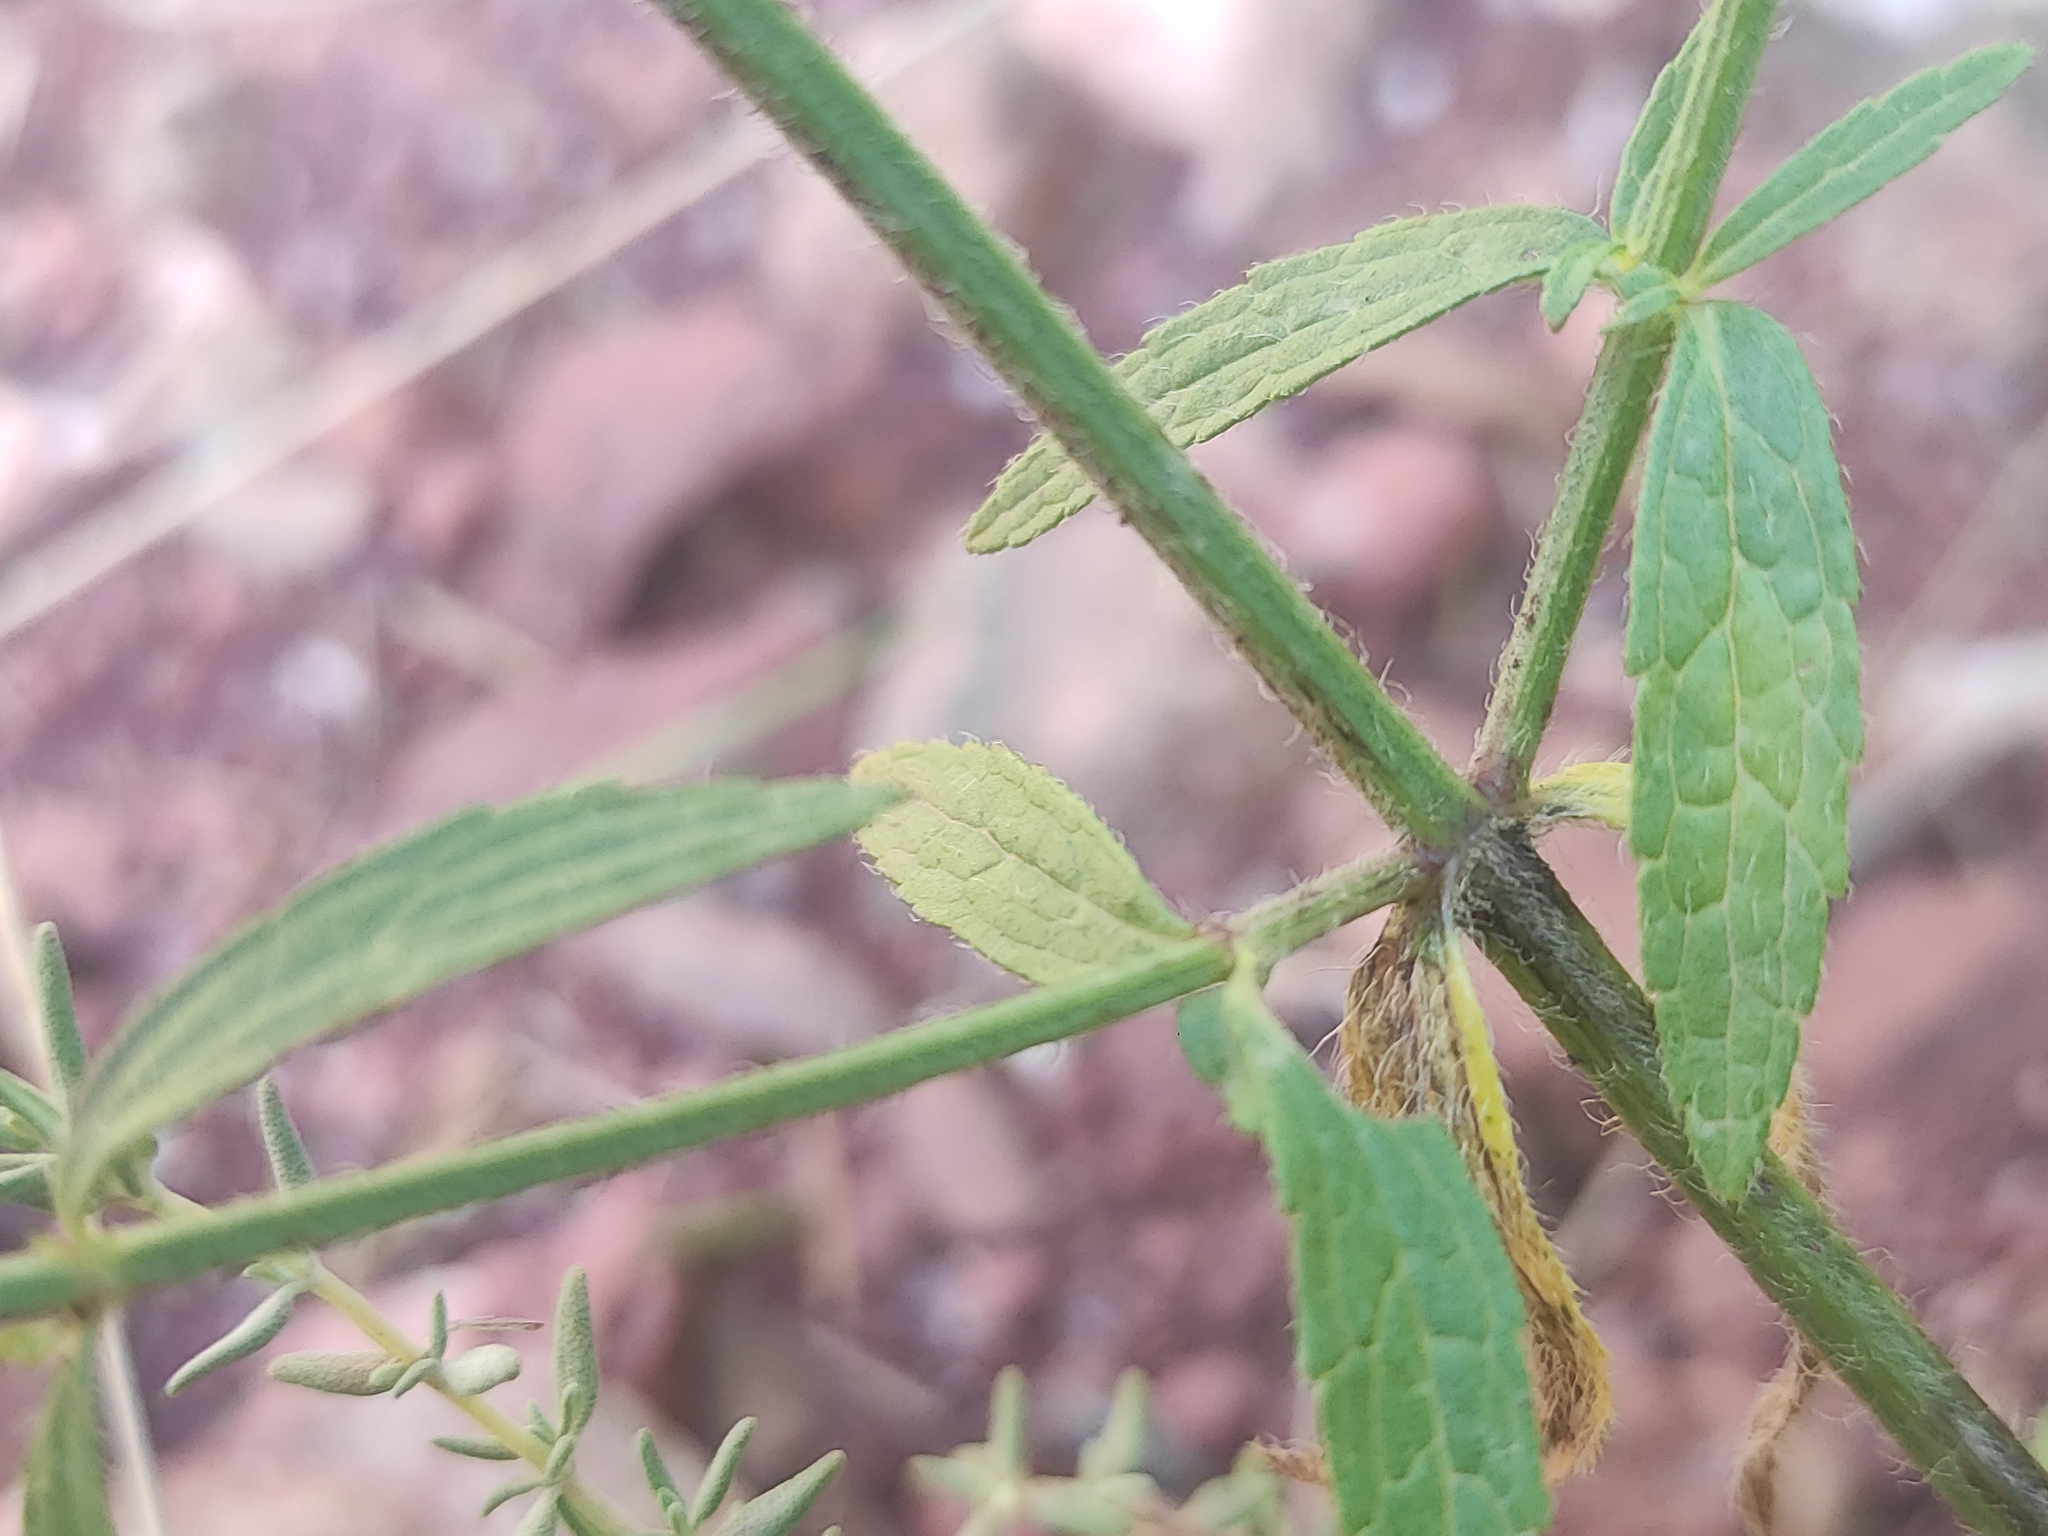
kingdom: Plantae
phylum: Tracheophyta
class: Magnoliopsida
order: Lamiales
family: Lamiaceae
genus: Stachys
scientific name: Stachys recta
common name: Perennial yellow-woundwort
